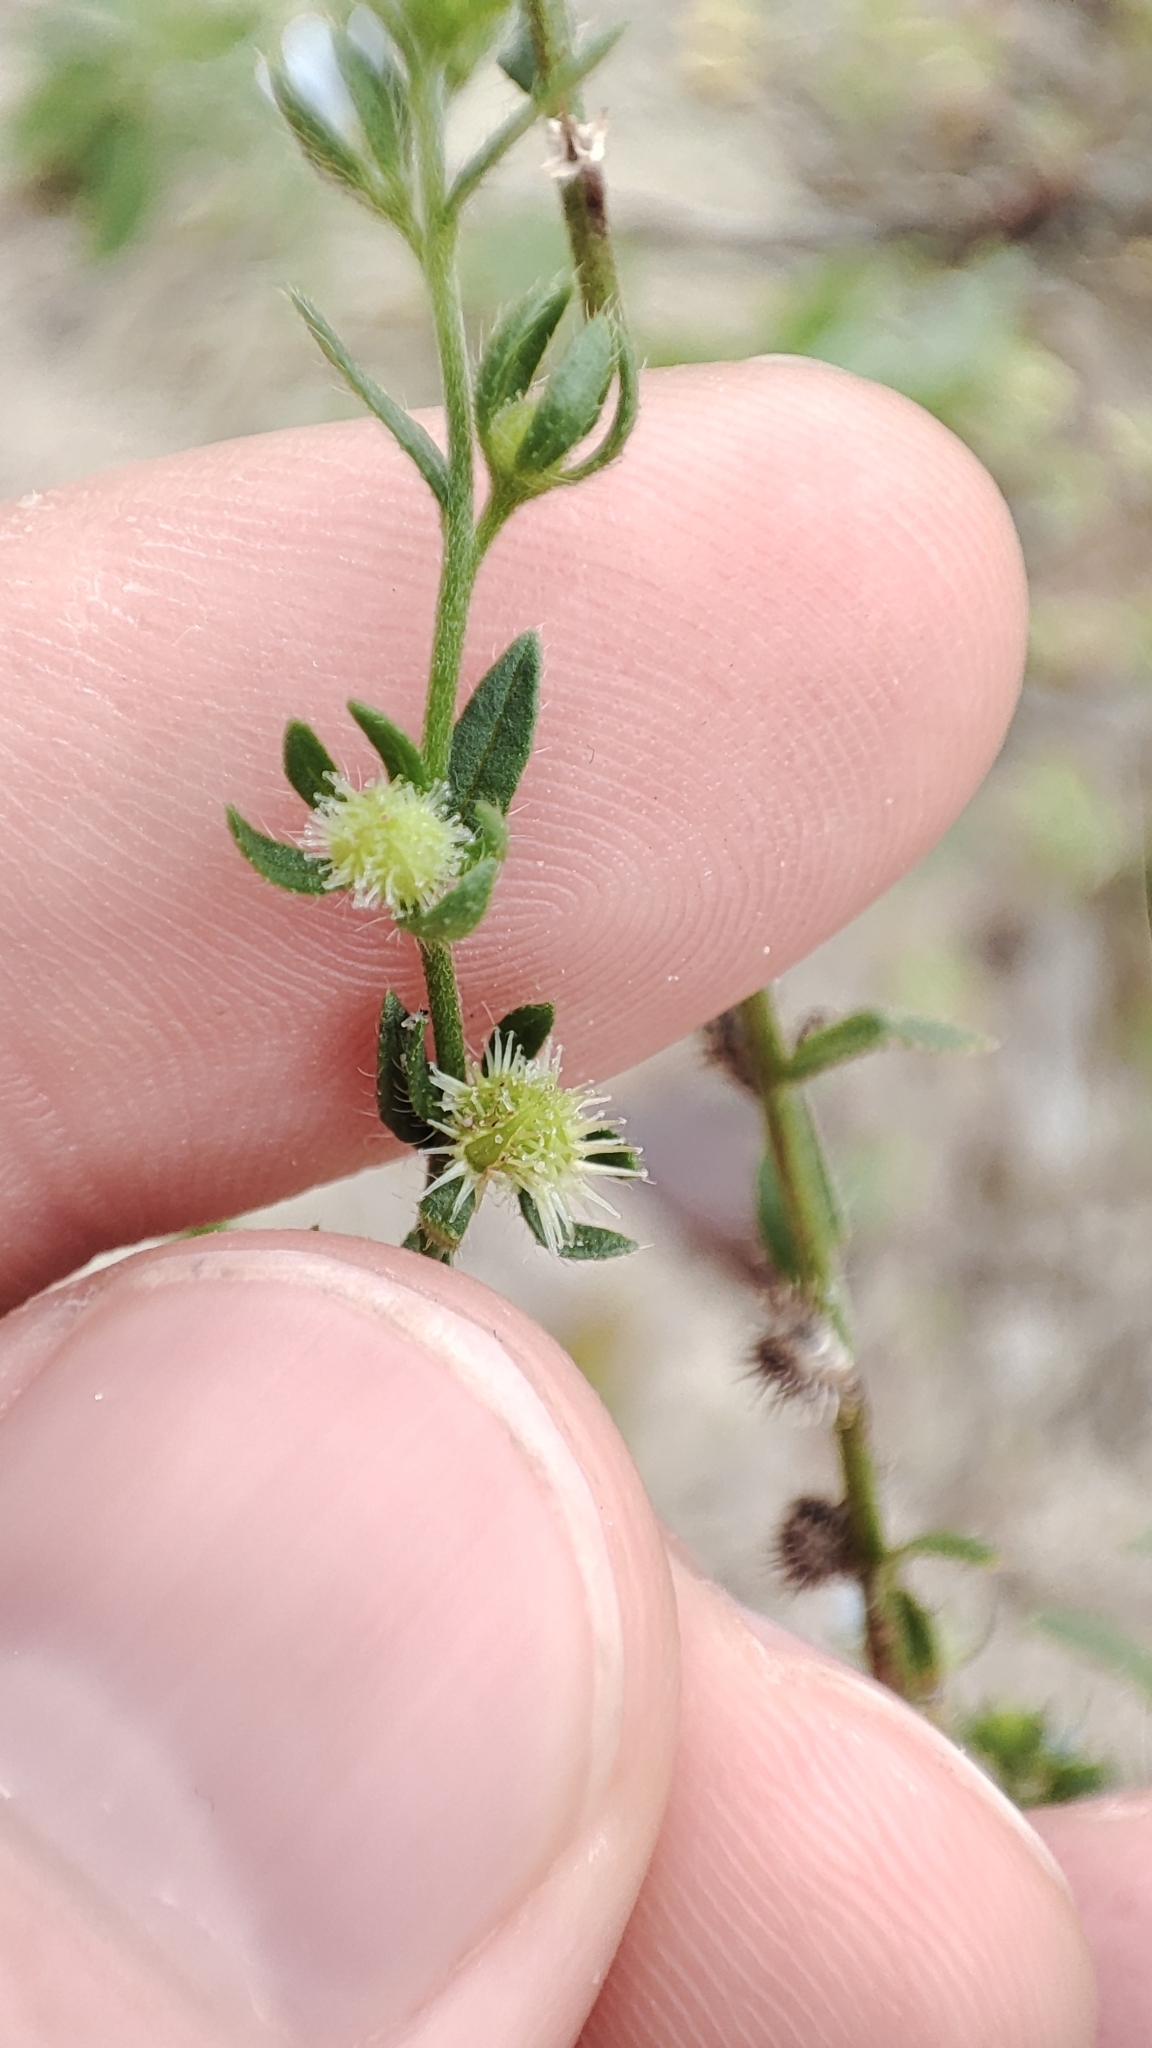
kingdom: Plantae
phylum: Tracheophyta
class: Magnoliopsida
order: Boraginales
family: Boraginaceae
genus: Lappula
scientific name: Lappula squarrosa
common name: European stickseed
